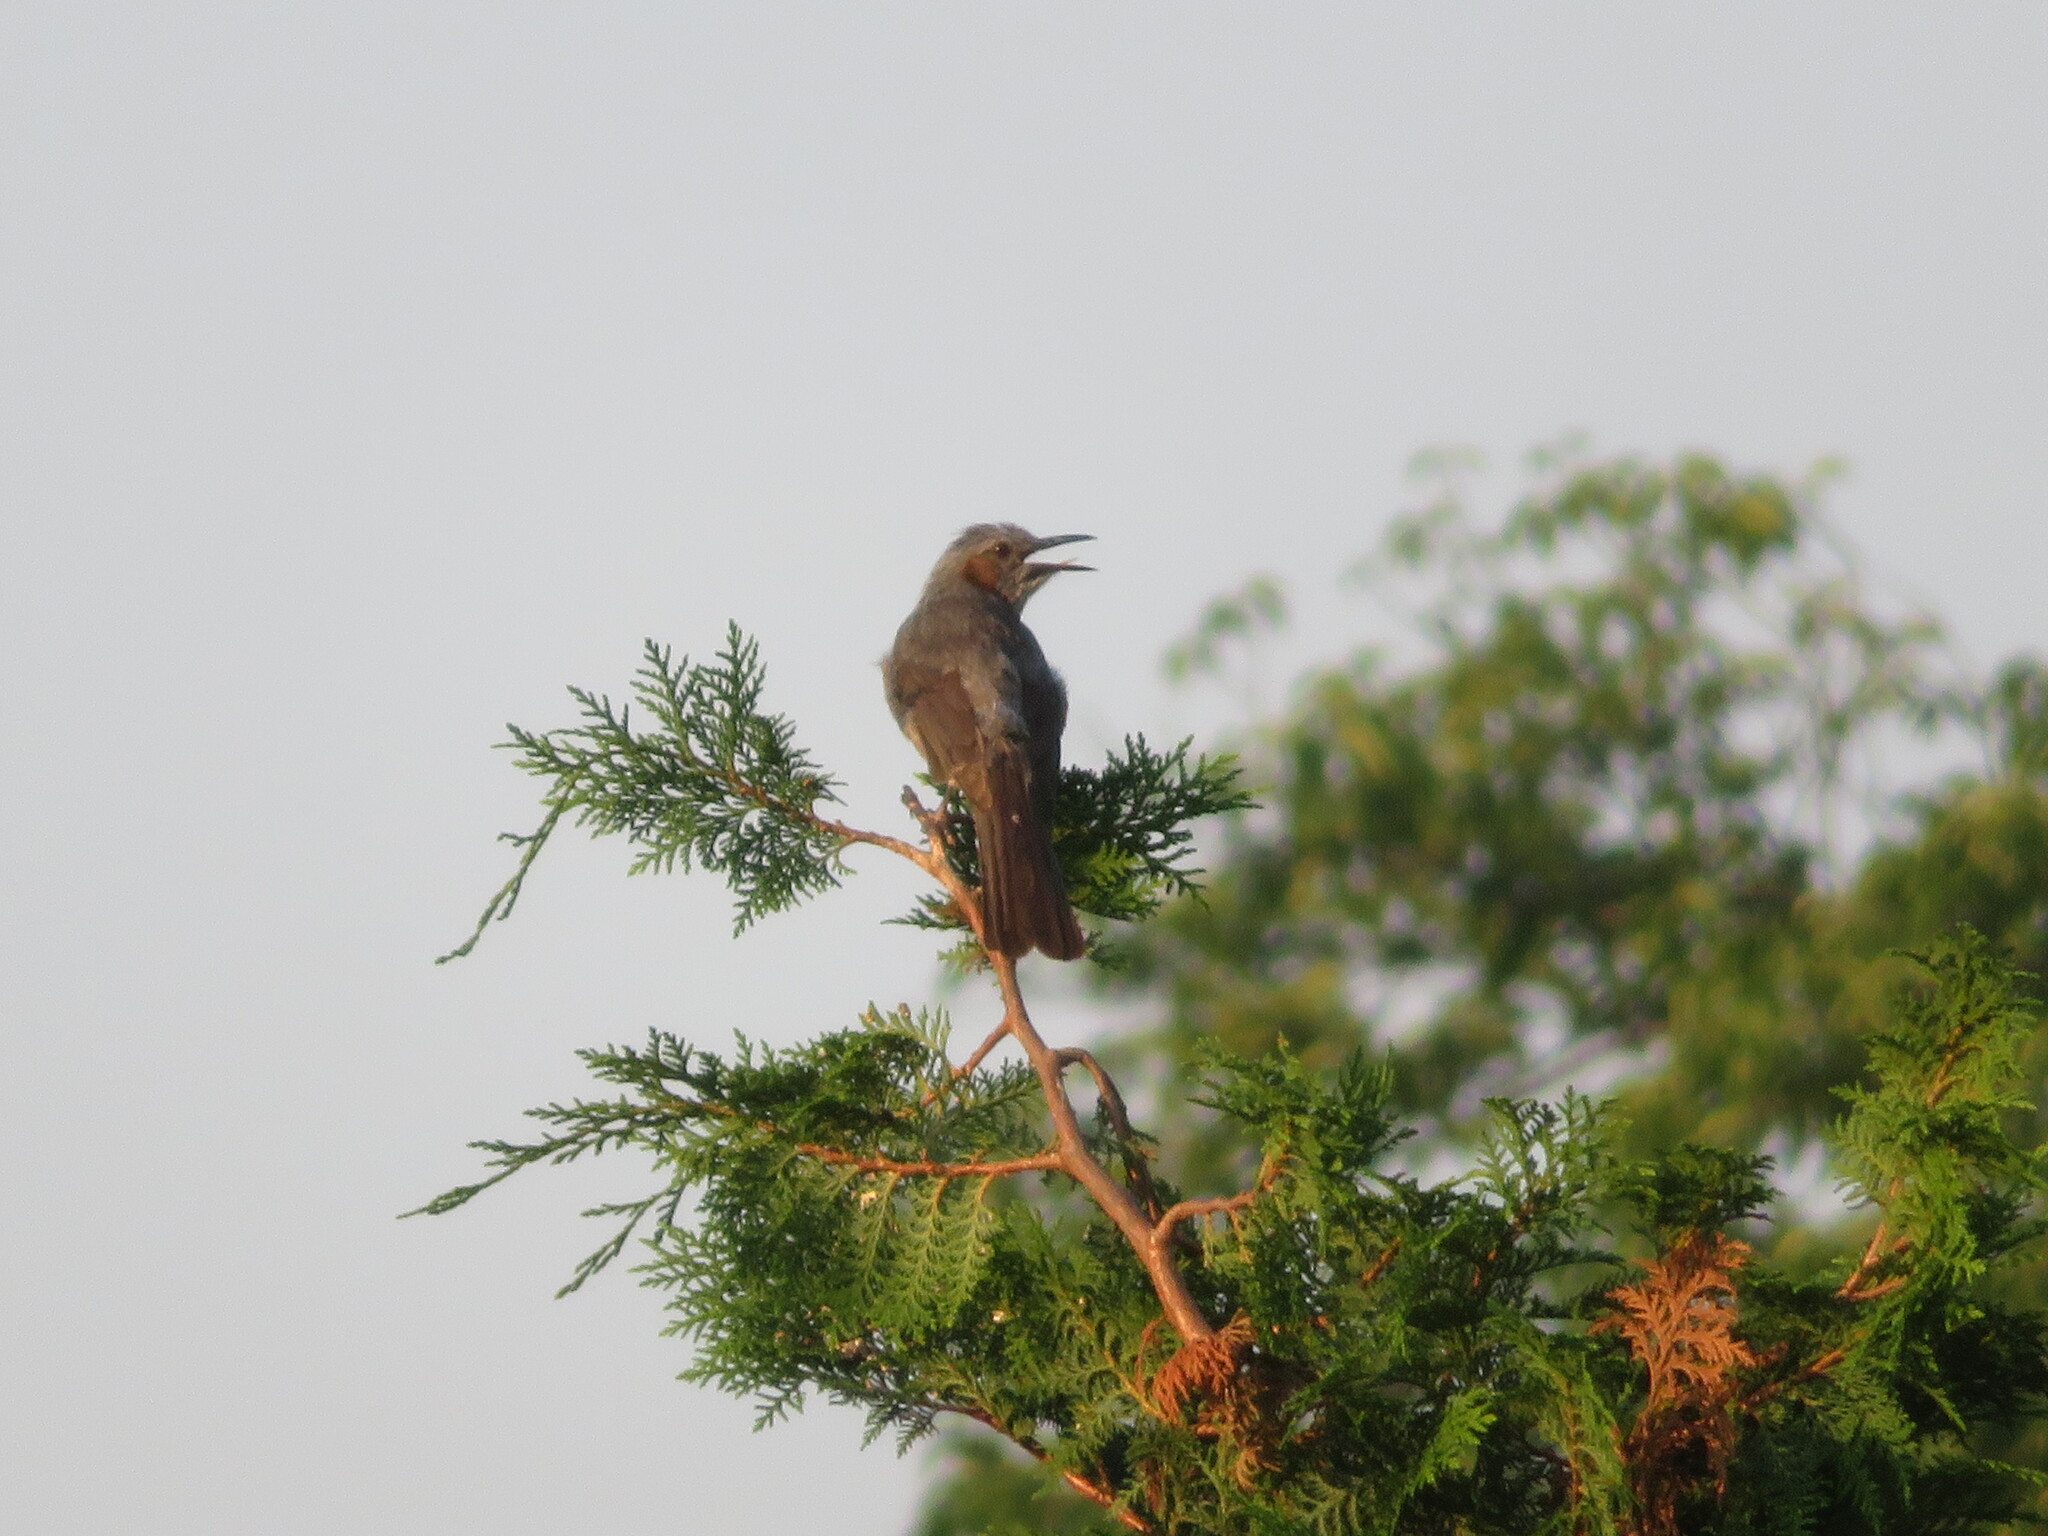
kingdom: Animalia
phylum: Chordata
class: Aves
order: Passeriformes
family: Pycnonotidae
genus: Hypsipetes
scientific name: Hypsipetes amaurotis
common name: Brown-eared bulbul
